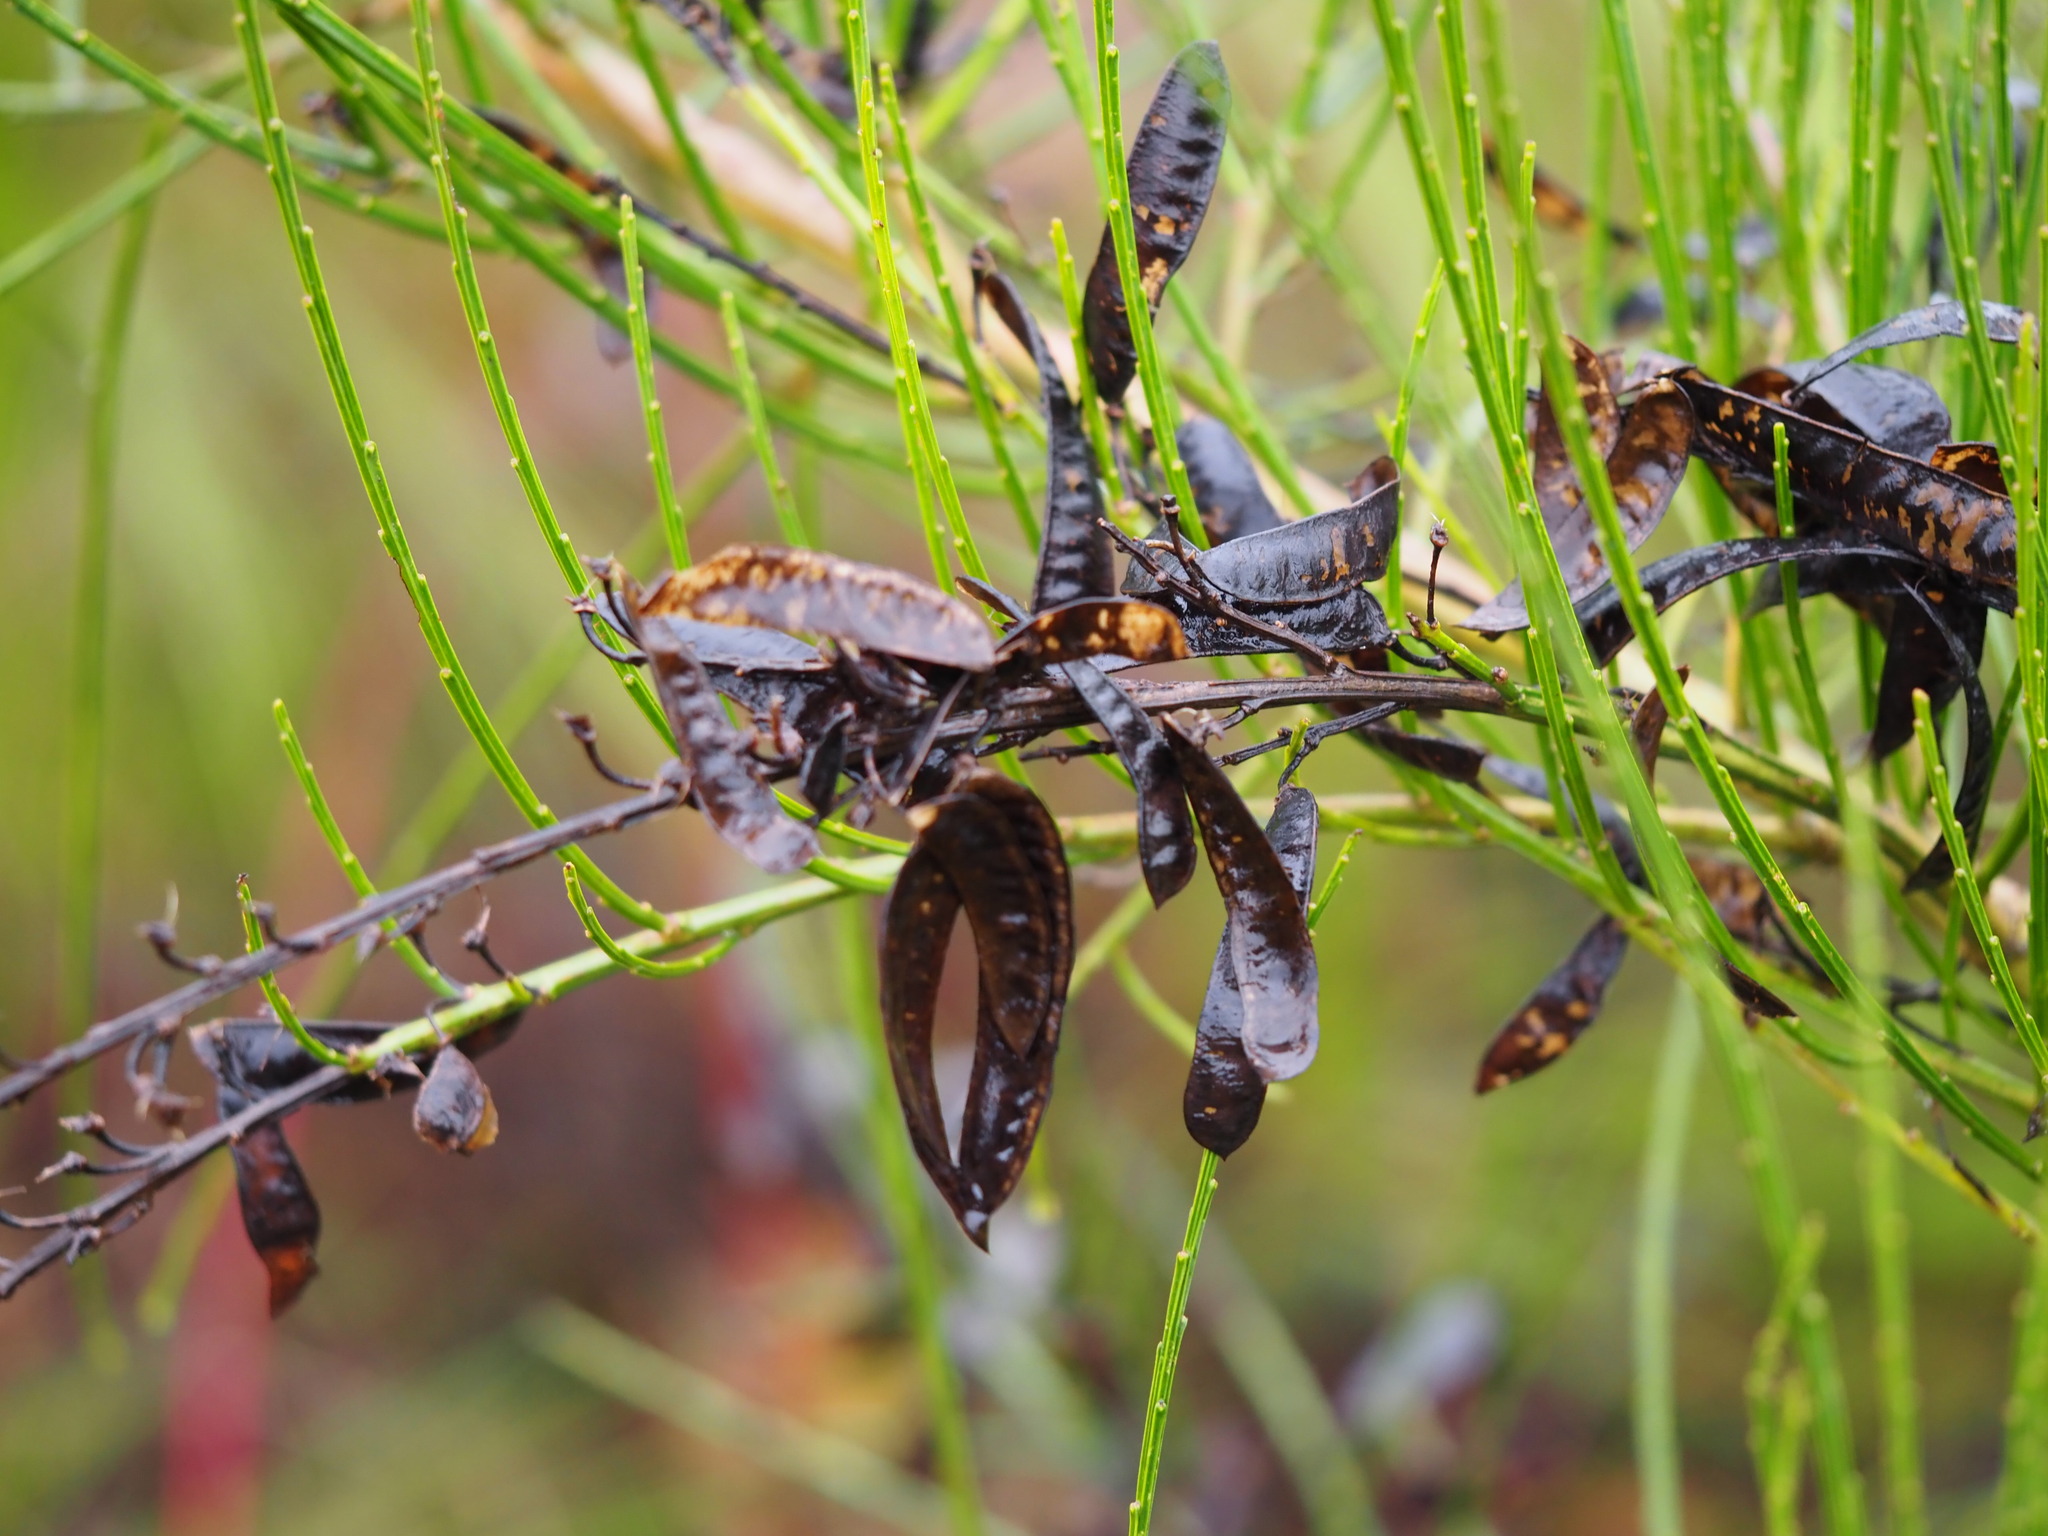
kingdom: Plantae
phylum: Tracheophyta
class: Magnoliopsida
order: Fabales
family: Fabaceae
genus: Cytisus
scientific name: Cytisus scoparius
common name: Scotch broom
